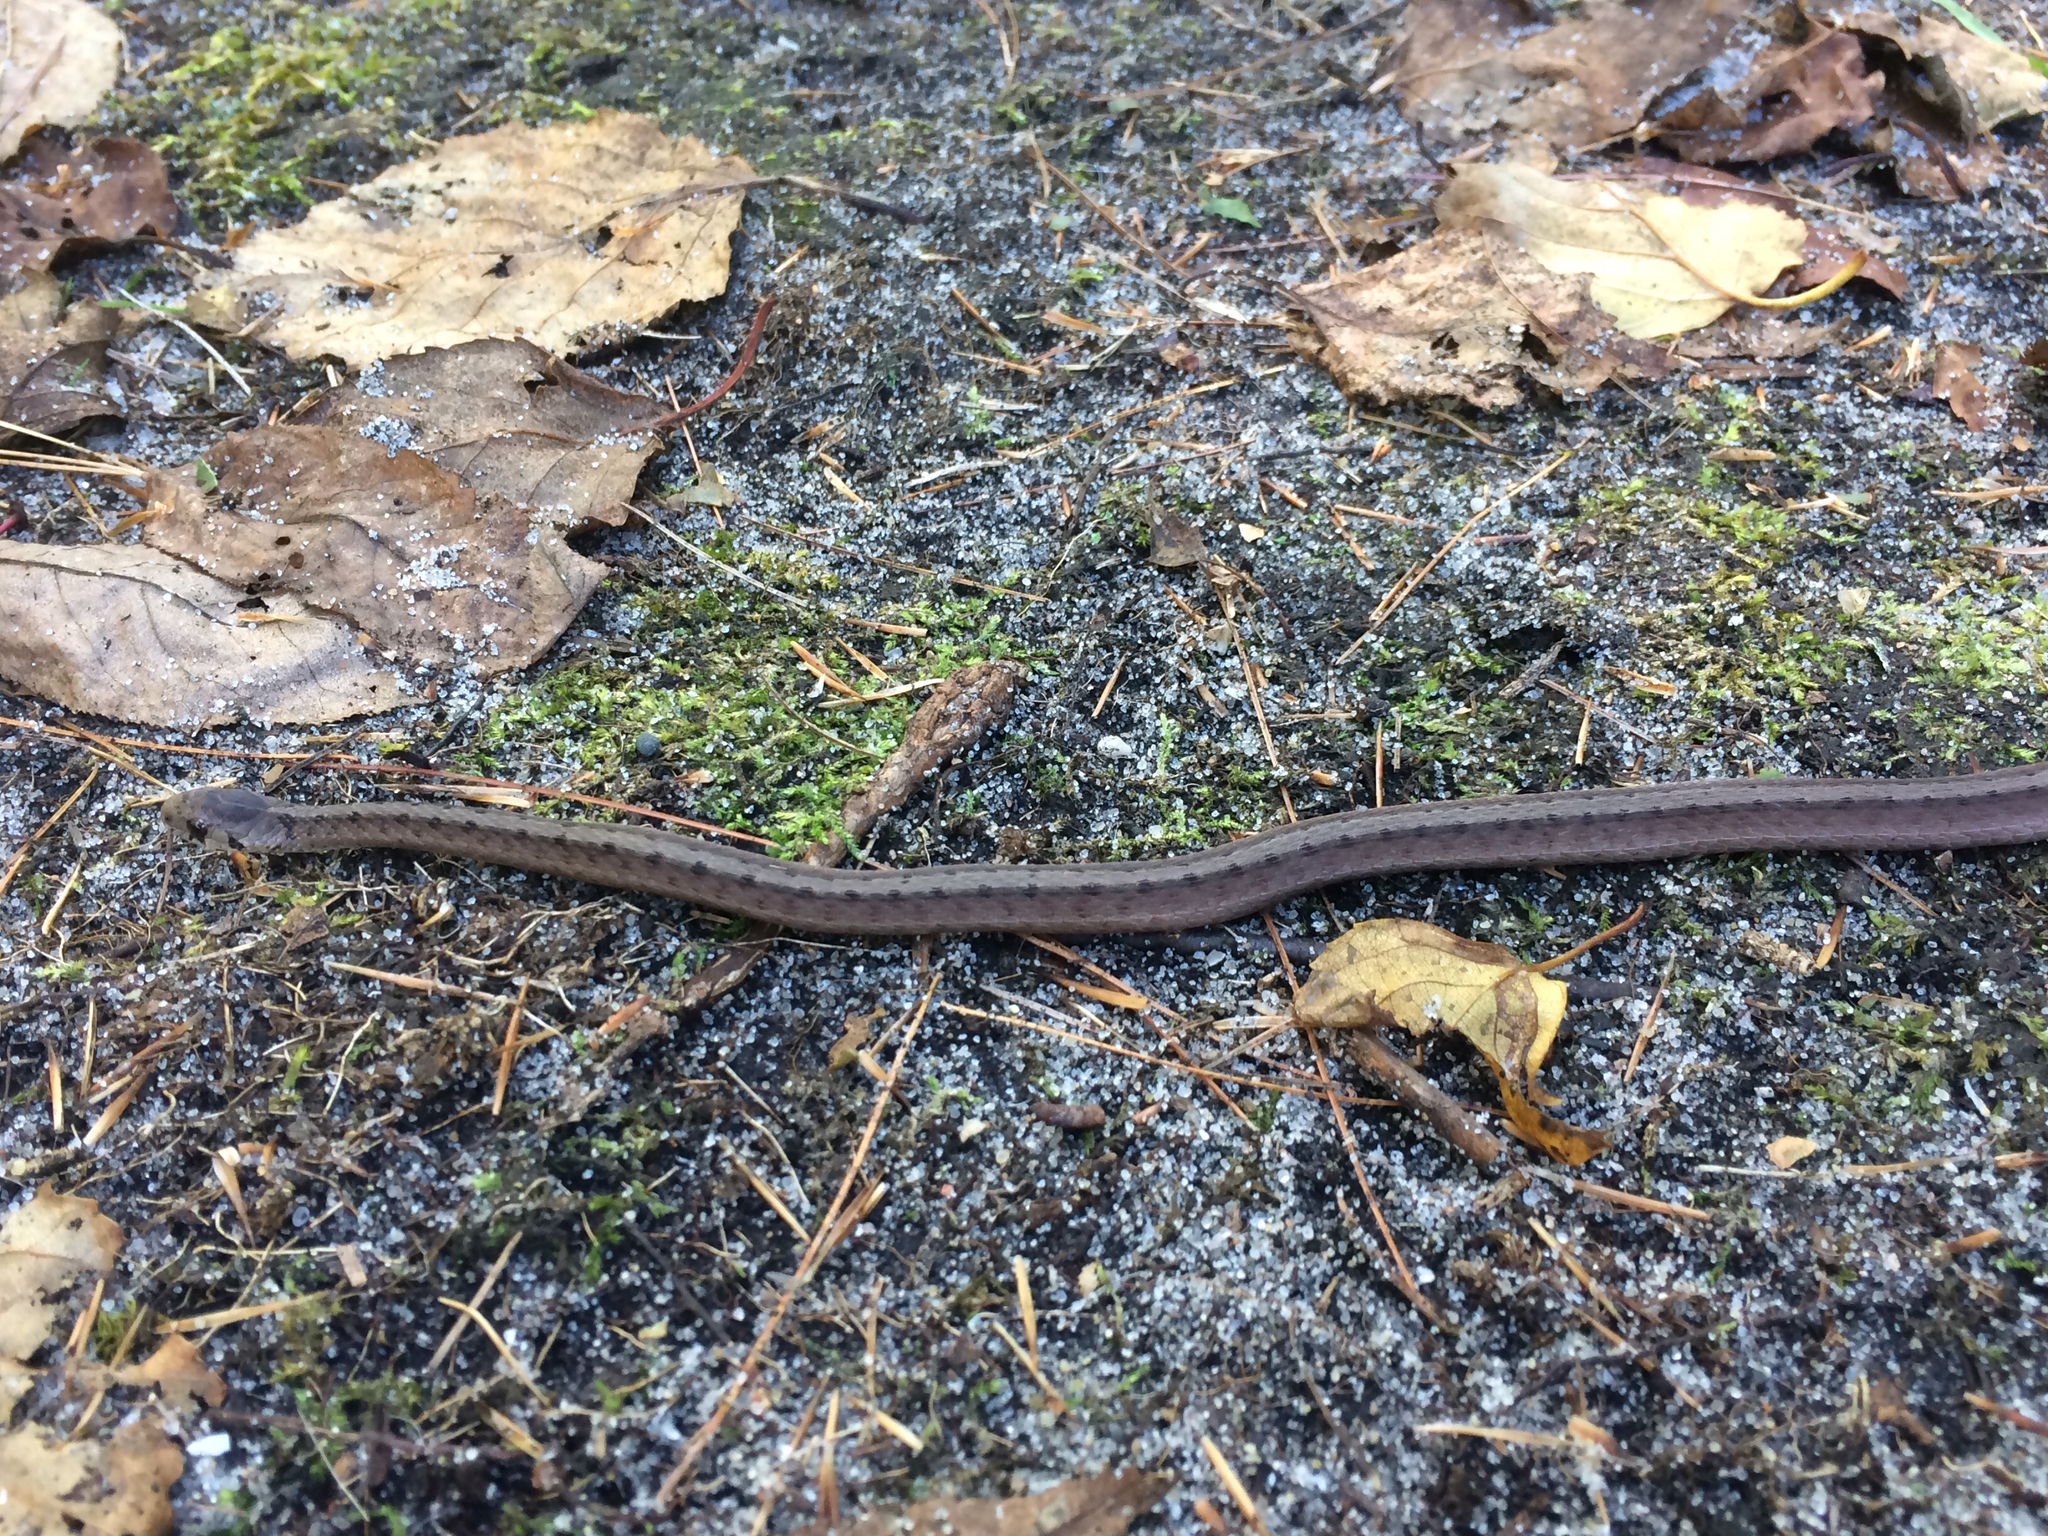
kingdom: Animalia
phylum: Chordata
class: Squamata
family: Colubridae
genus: Storeria
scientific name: Storeria dekayi
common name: (dekay’s) brown snake
